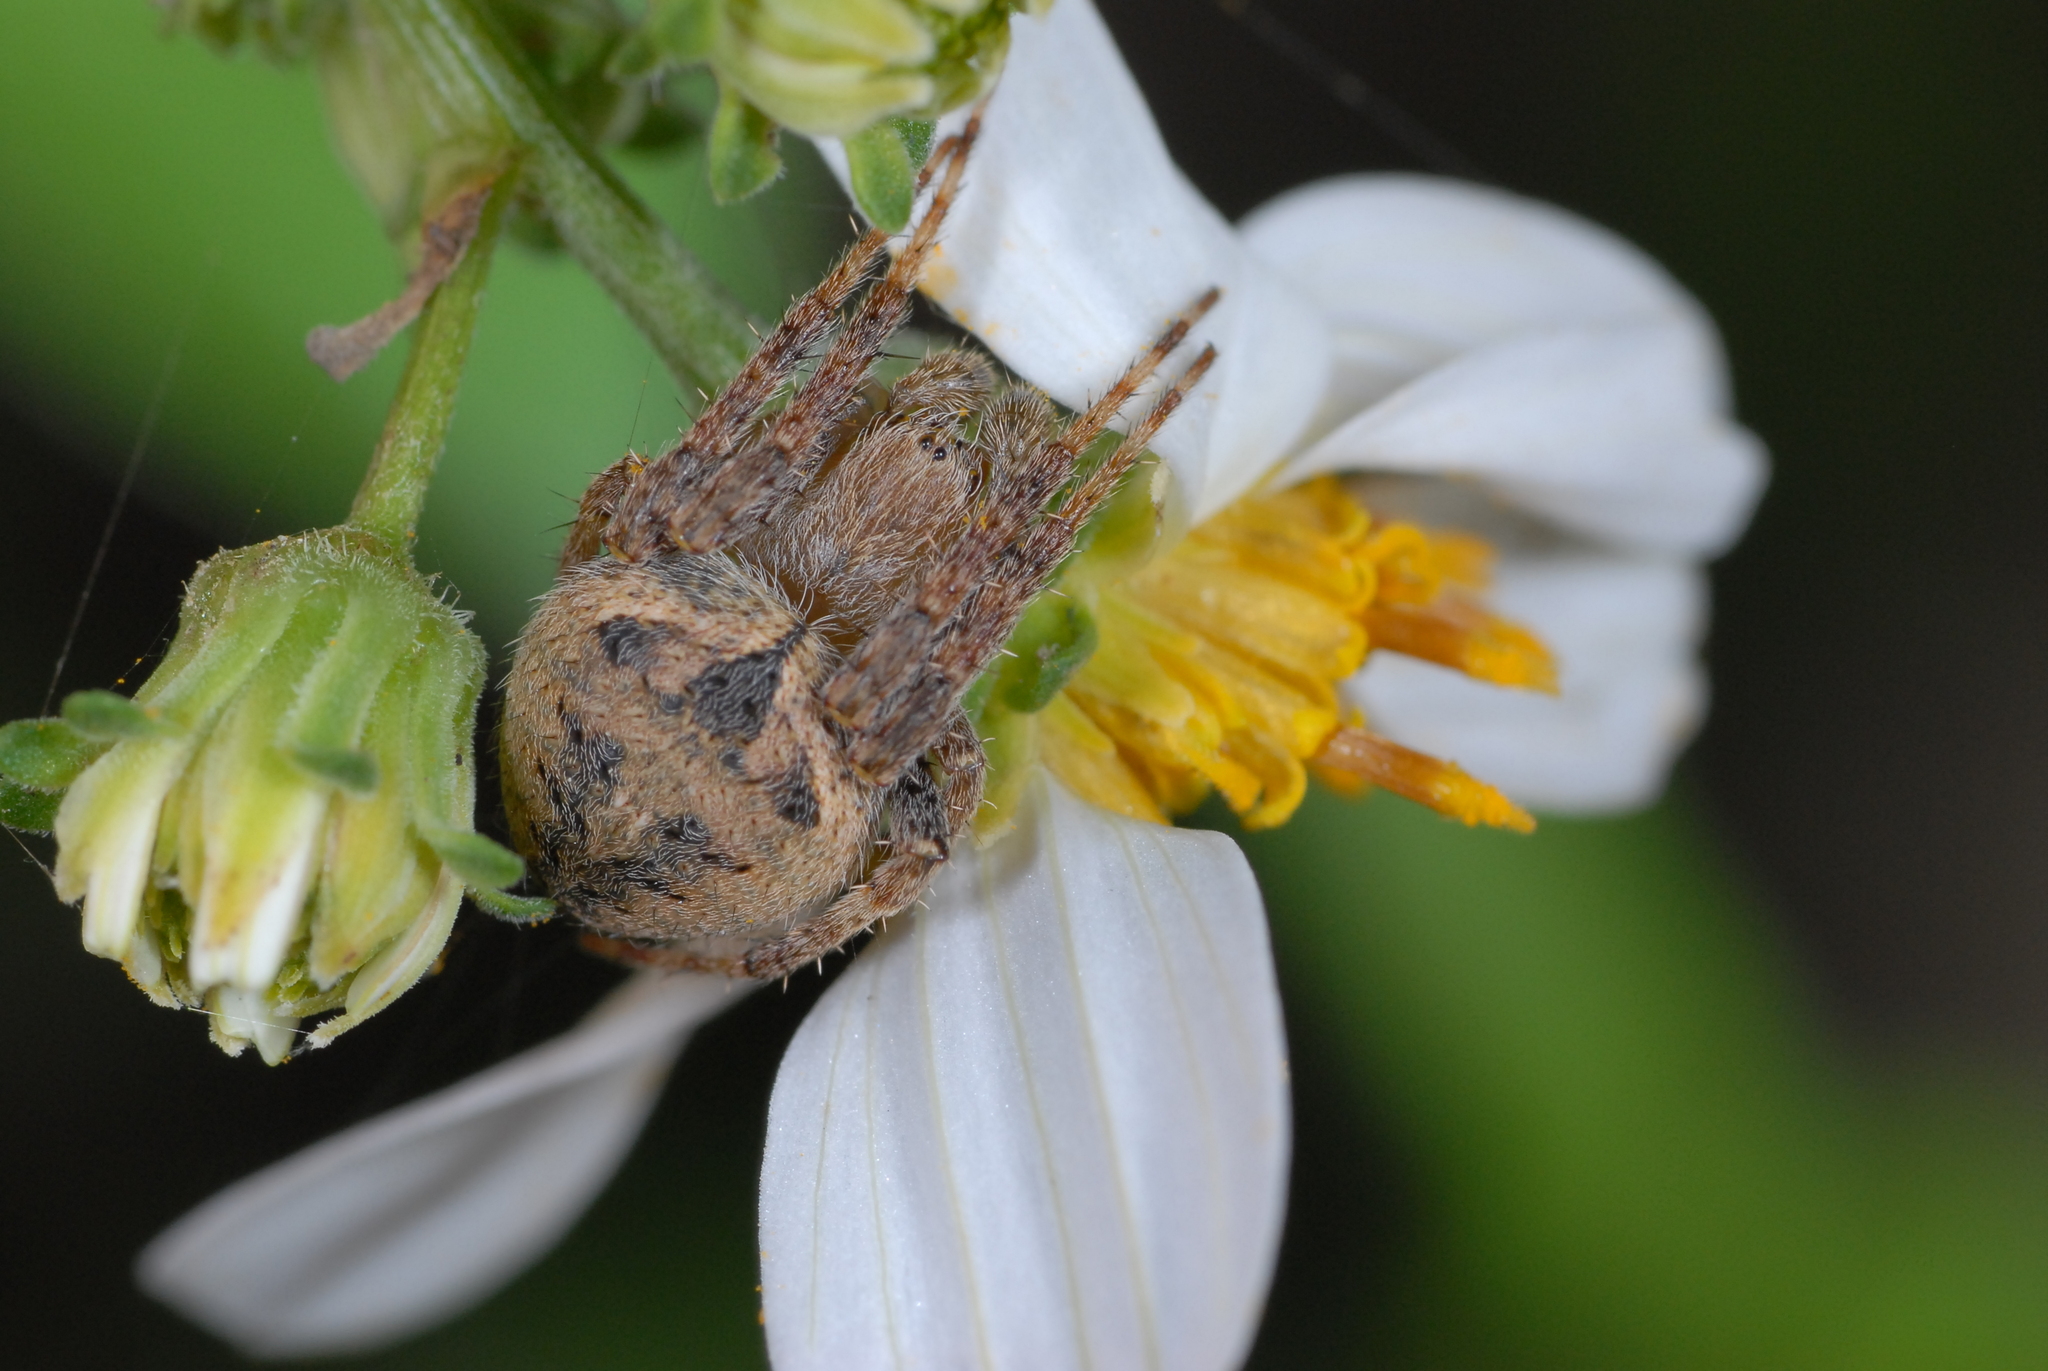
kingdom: Animalia
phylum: Arthropoda
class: Arachnida
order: Araneae
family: Araneidae
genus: Araneus
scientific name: Araneus ventricosus
